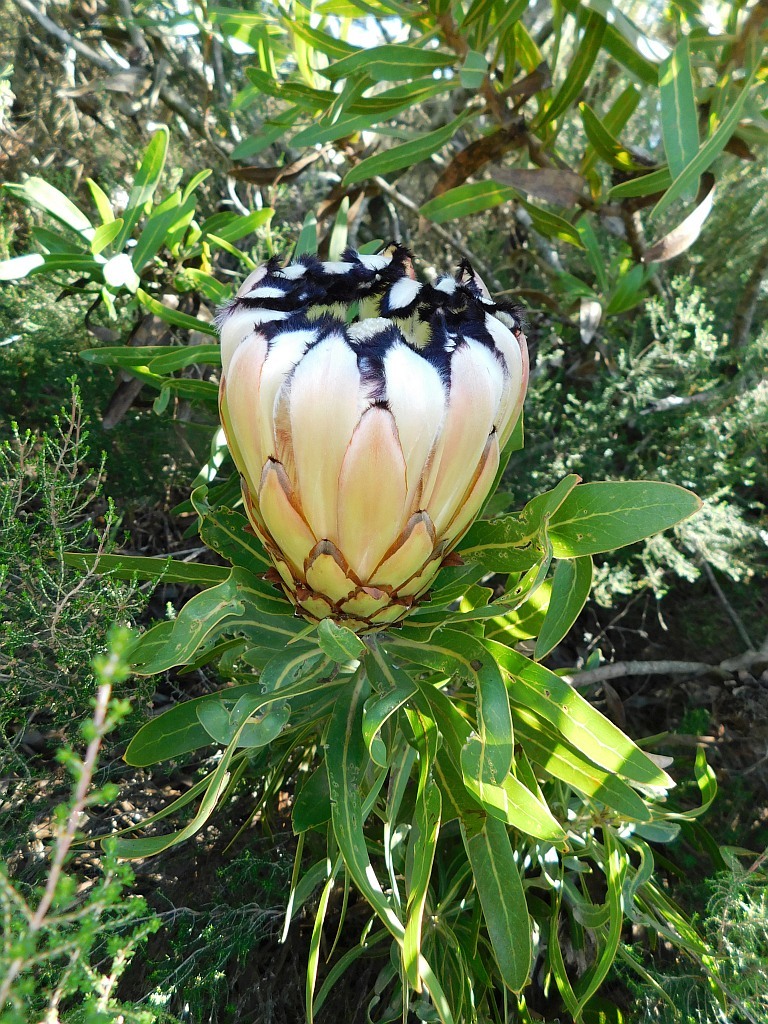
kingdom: Plantae
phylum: Tracheophyta
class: Magnoliopsida
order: Proteales
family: Proteaceae
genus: Protea
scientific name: Protea neriifolia
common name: Blue sugarbush
